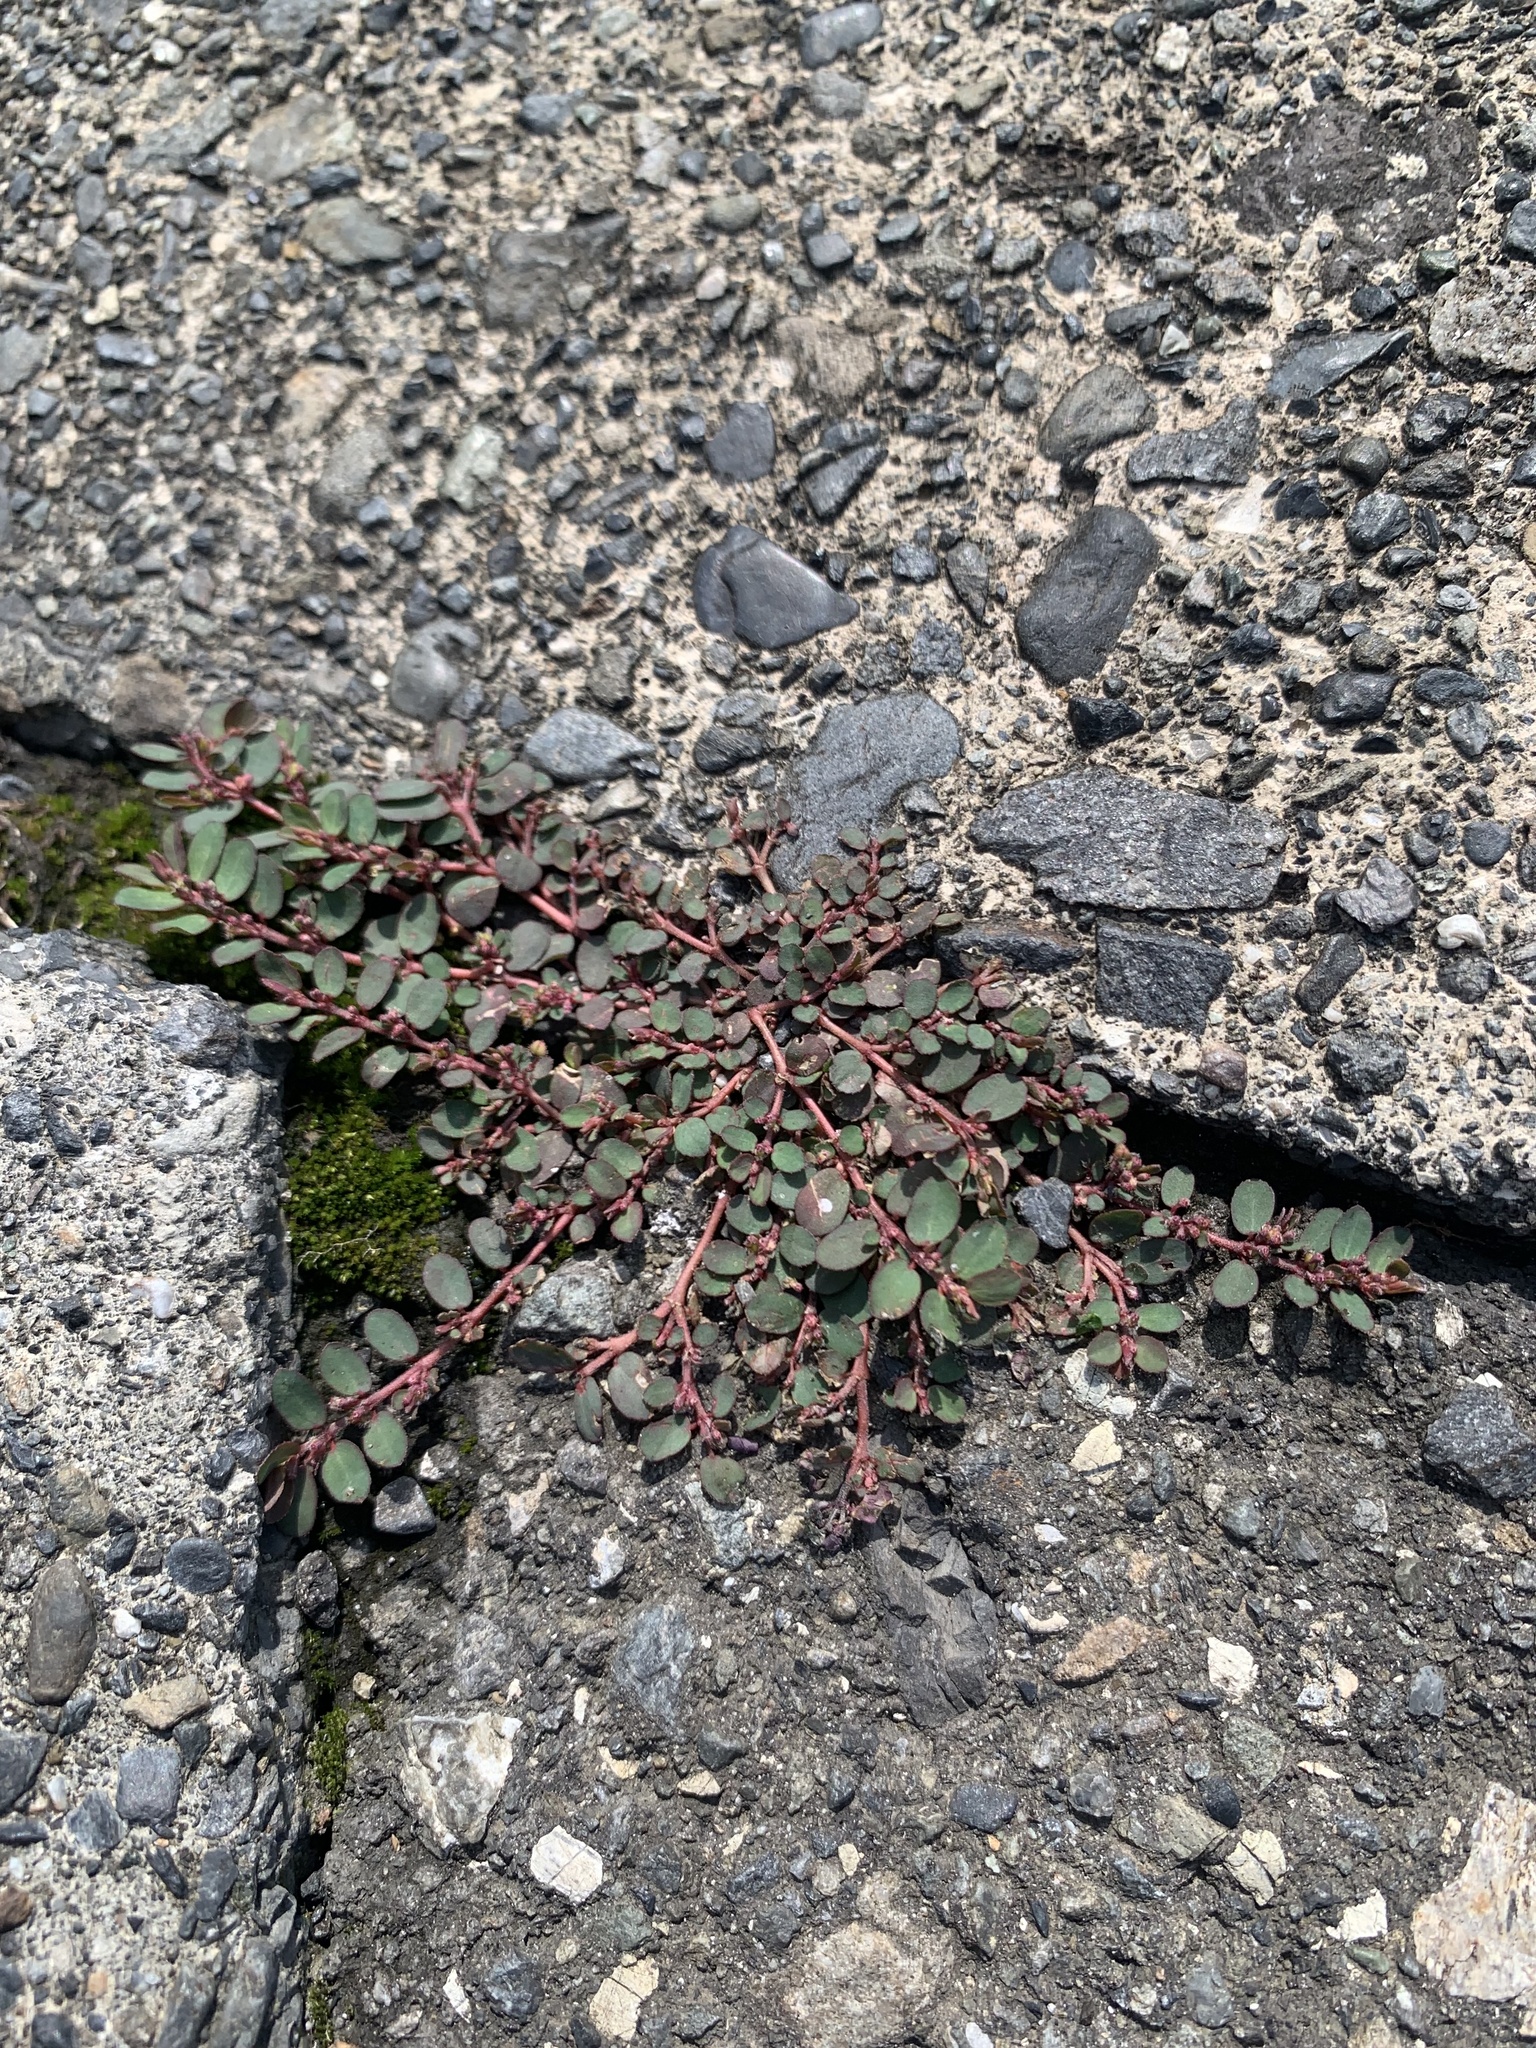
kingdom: Plantae
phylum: Tracheophyta
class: Magnoliopsida
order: Malpighiales
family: Euphorbiaceae
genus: Euphorbia
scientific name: Euphorbia prostrata
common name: Prostrate sandmat
